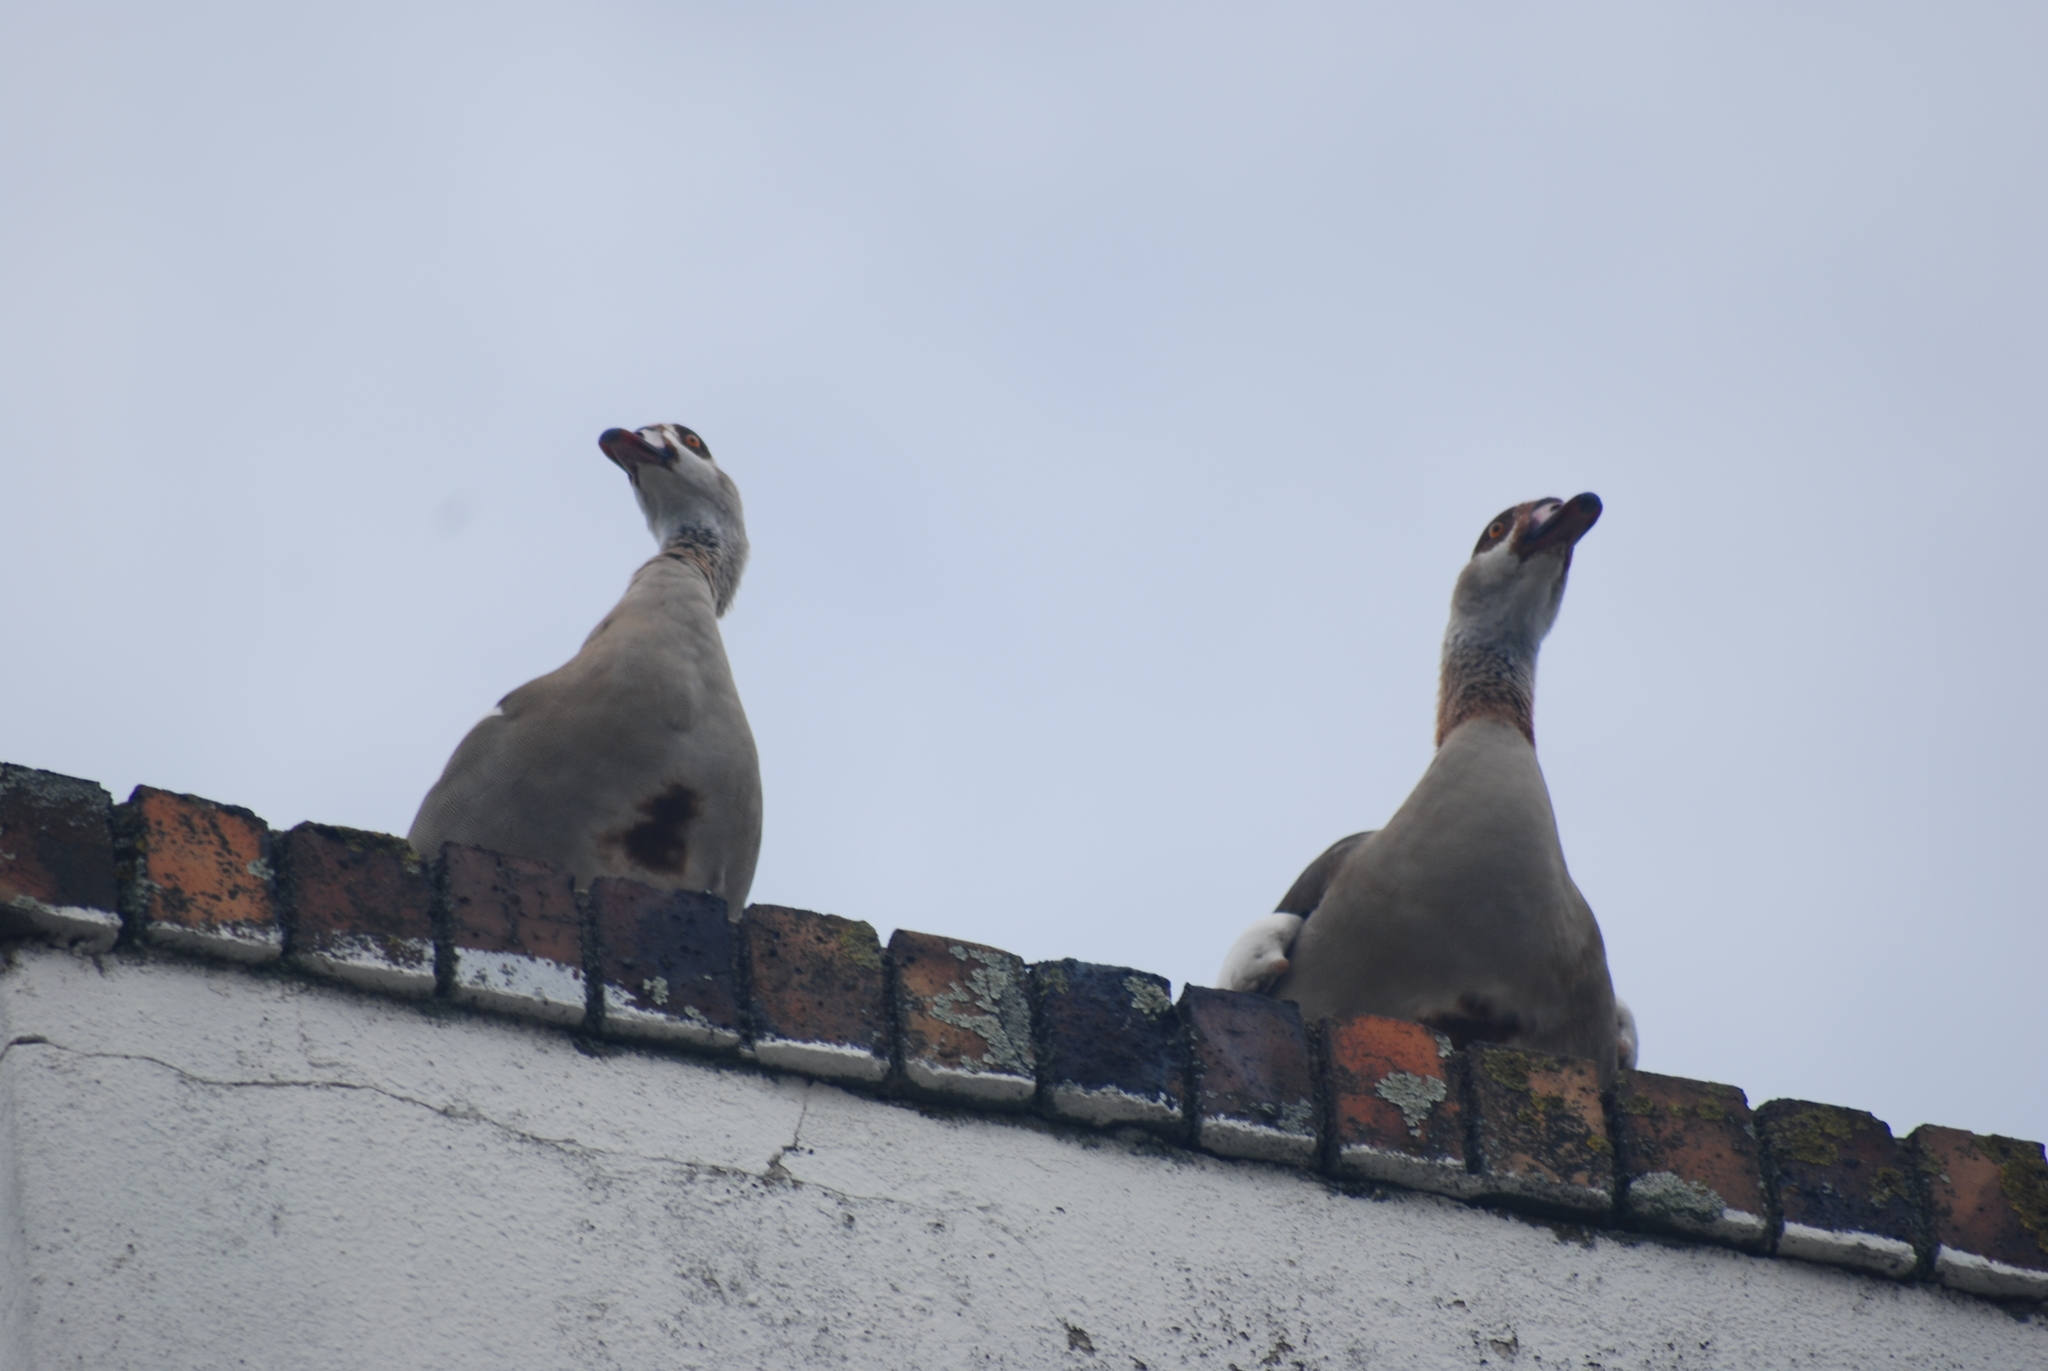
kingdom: Animalia
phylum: Chordata
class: Aves
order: Anseriformes
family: Anatidae
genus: Alopochen
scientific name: Alopochen aegyptiaca
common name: Egyptian goose
